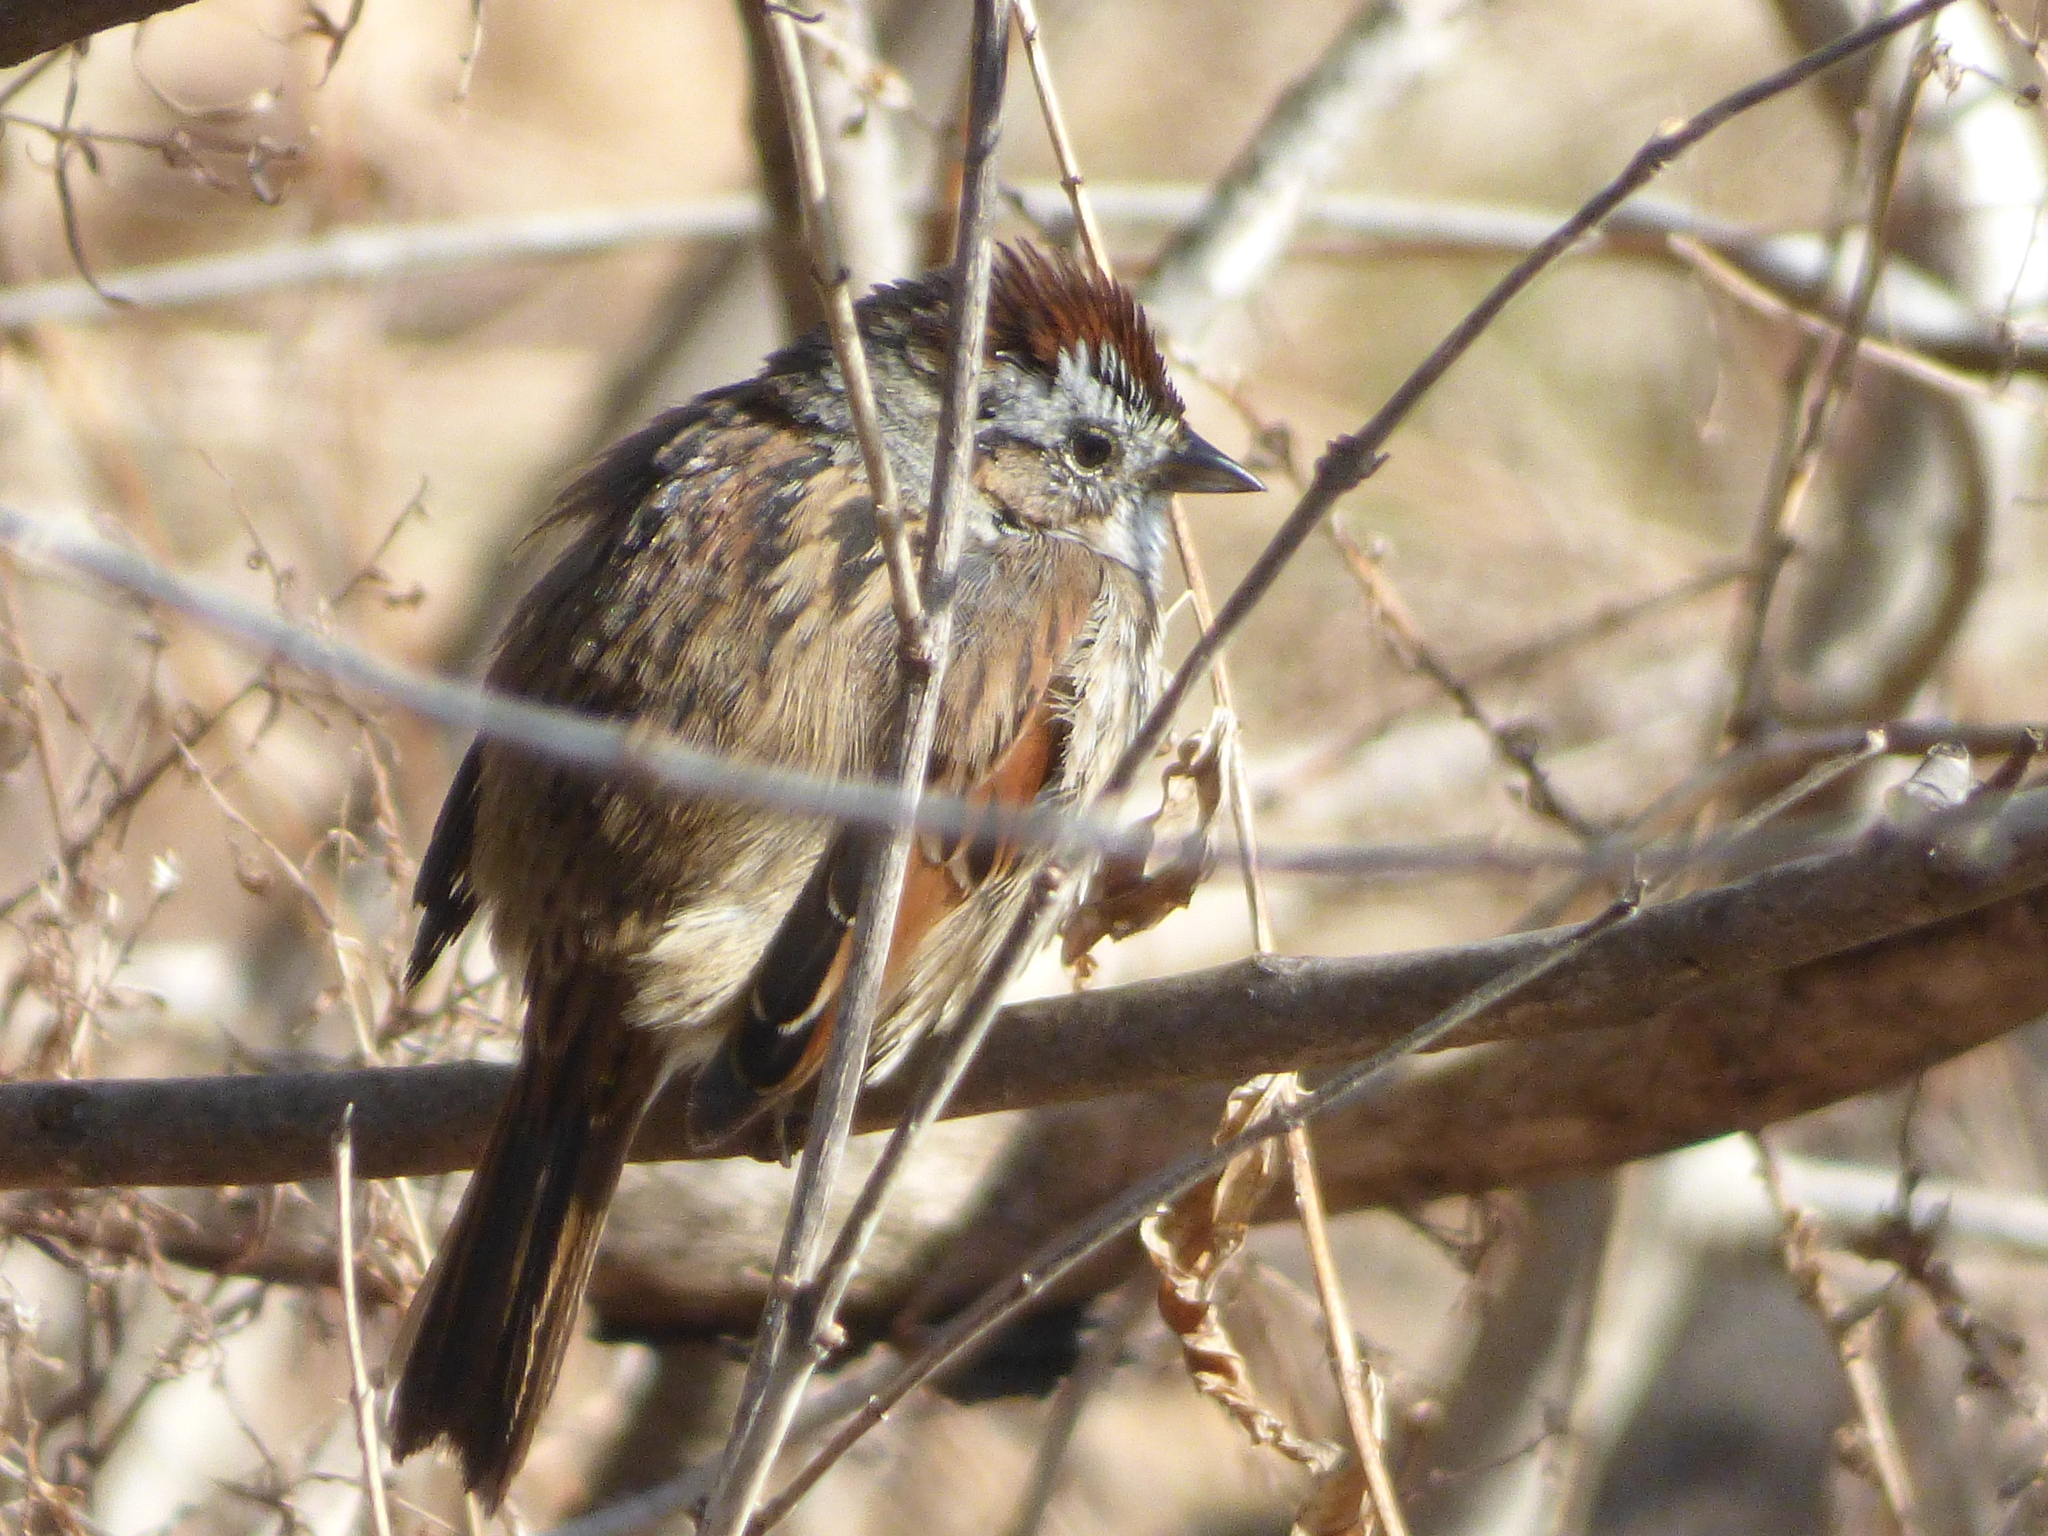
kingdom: Animalia
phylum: Chordata
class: Aves
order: Passeriformes
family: Passerellidae
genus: Melospiza
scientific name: Melospiza georgiana
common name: Swamp sparrow
